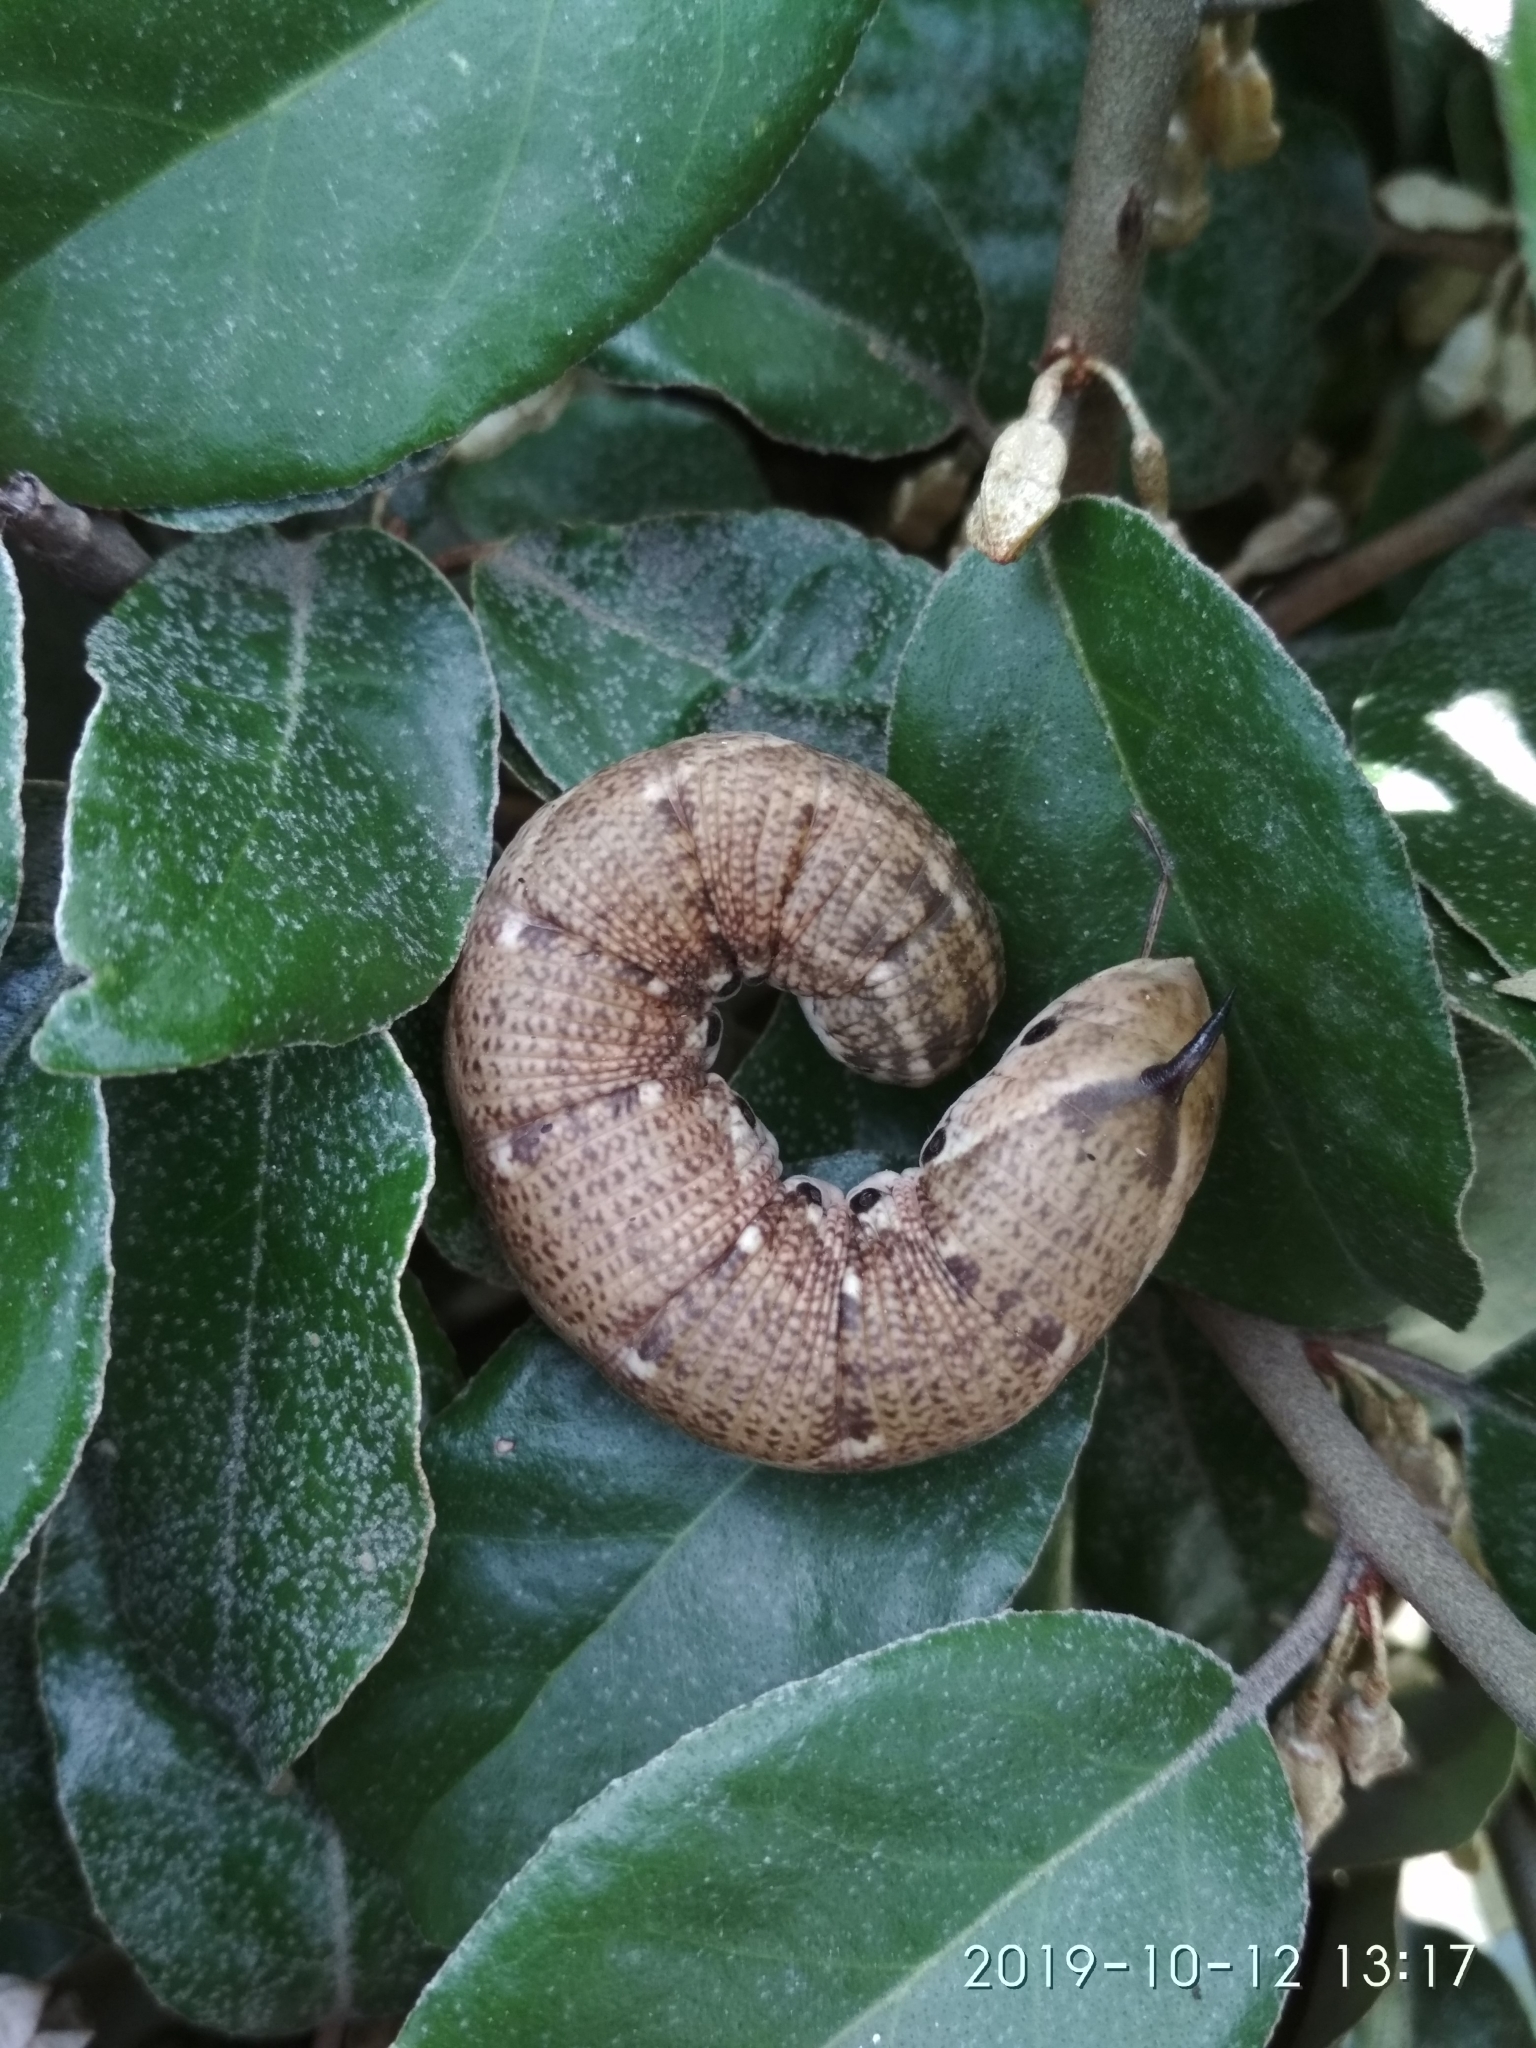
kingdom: Animalia
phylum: Arthropoda
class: Insecta
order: Lepidoptera
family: Sphingidae
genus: Agrius
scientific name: Agrius convolvuli
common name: Convolvulus hawkmoth
